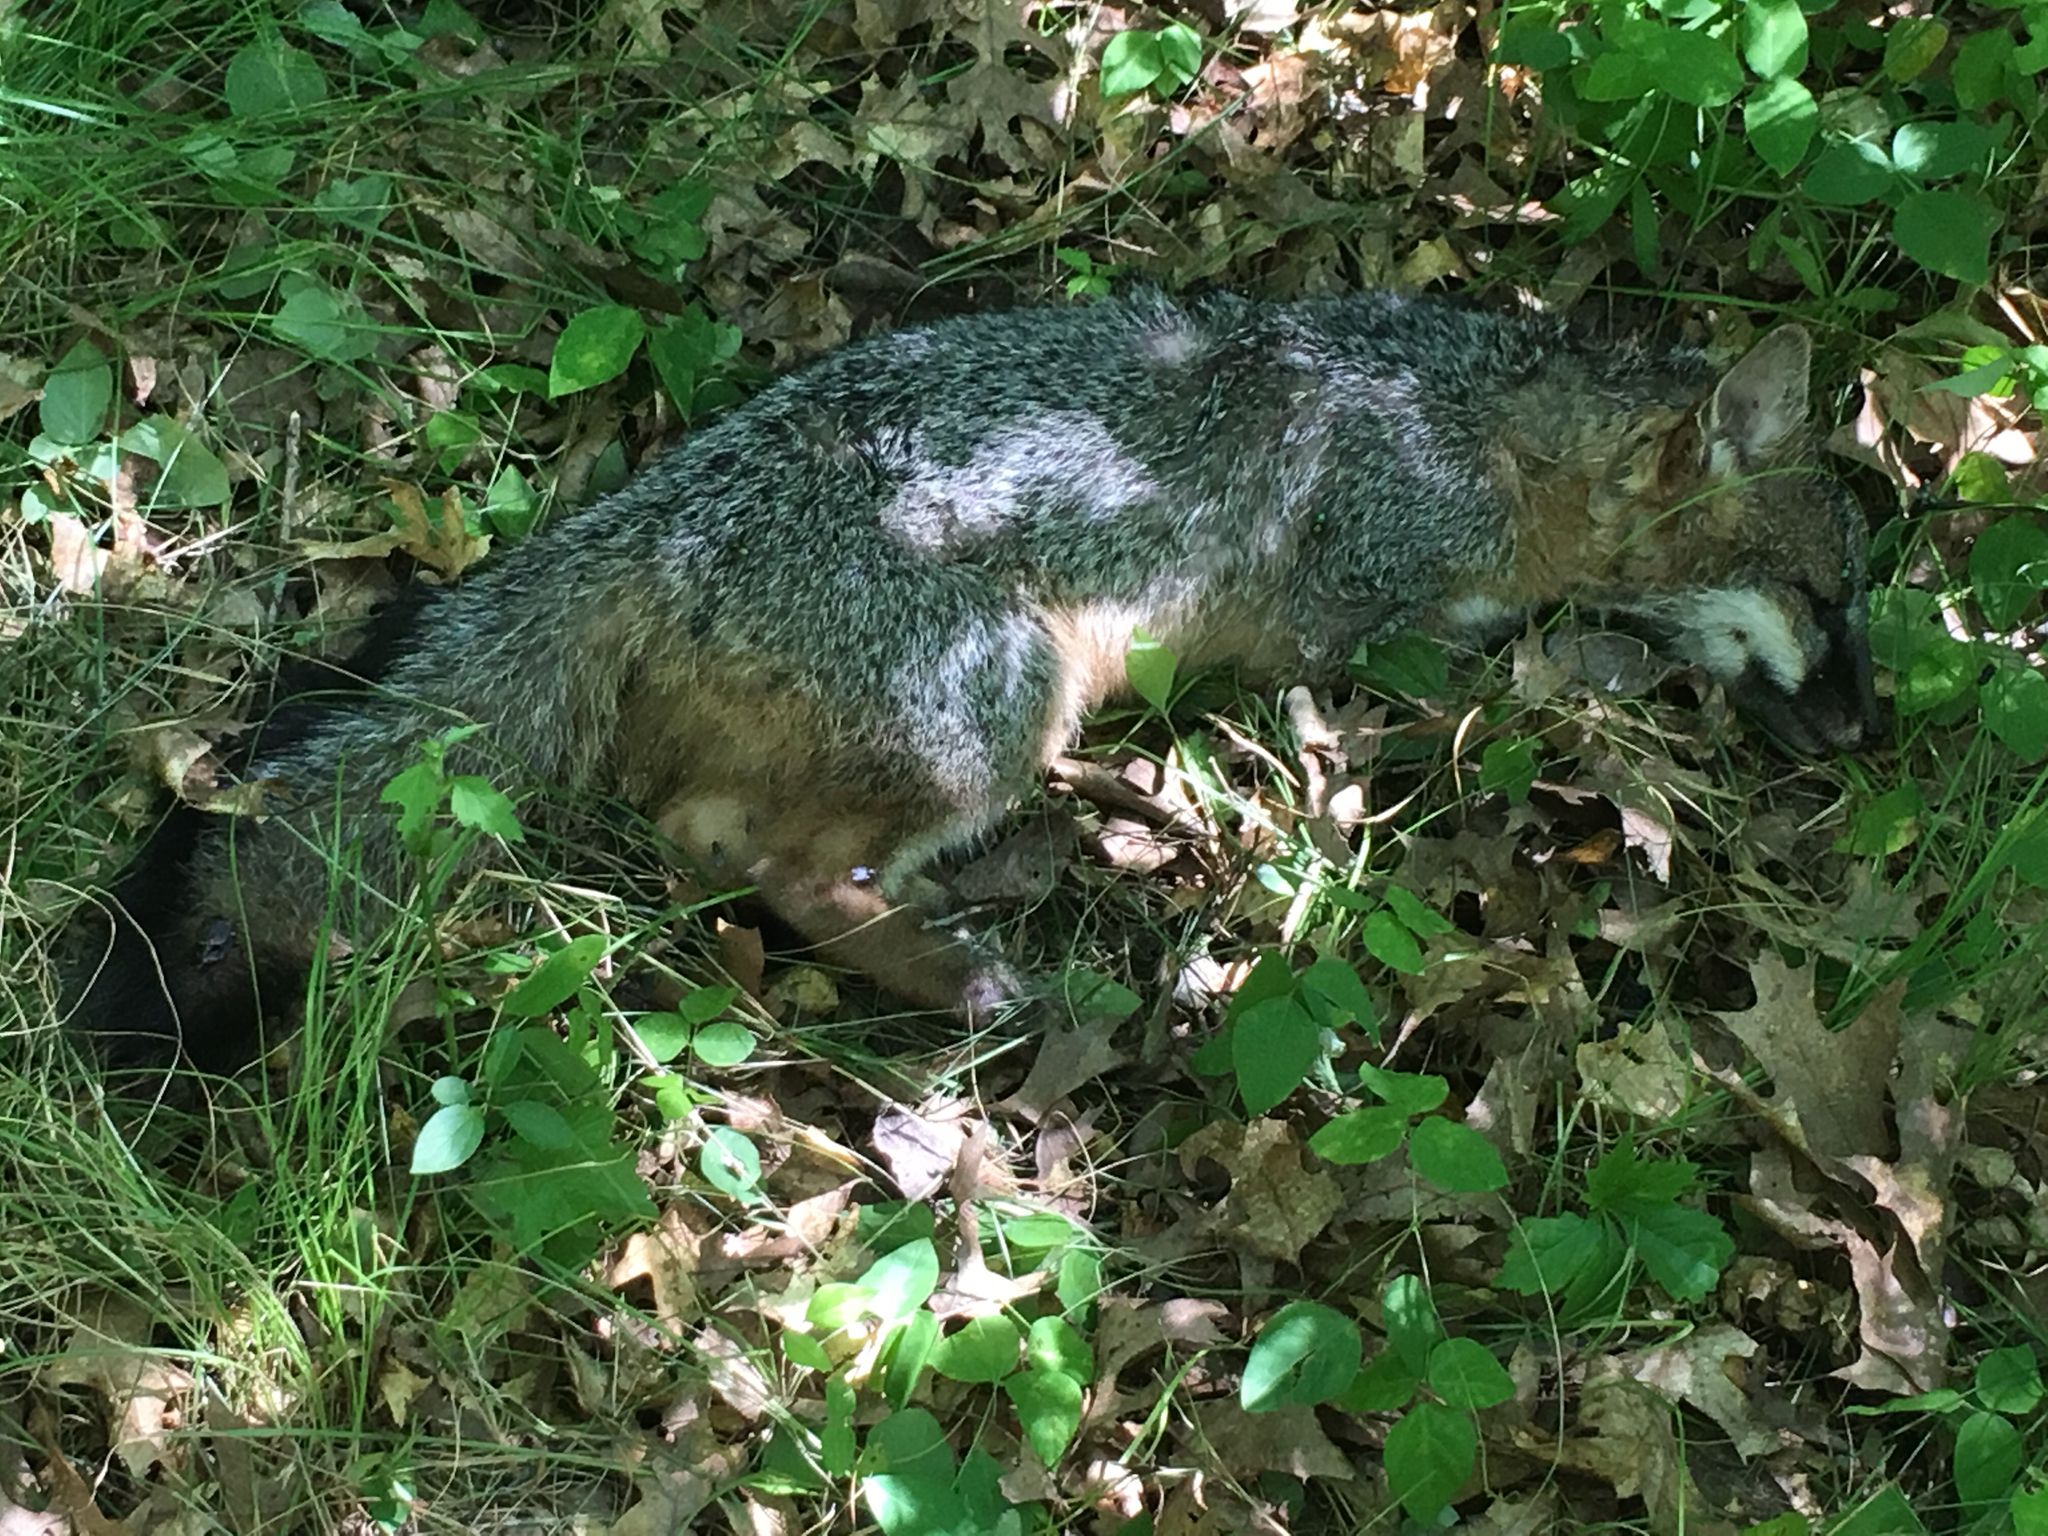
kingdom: Animalia
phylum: Chordata
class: Mammalia
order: Carnivora
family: Canidae
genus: Urocyon
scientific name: Urocyon cinereoargenteus
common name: Gray fox
